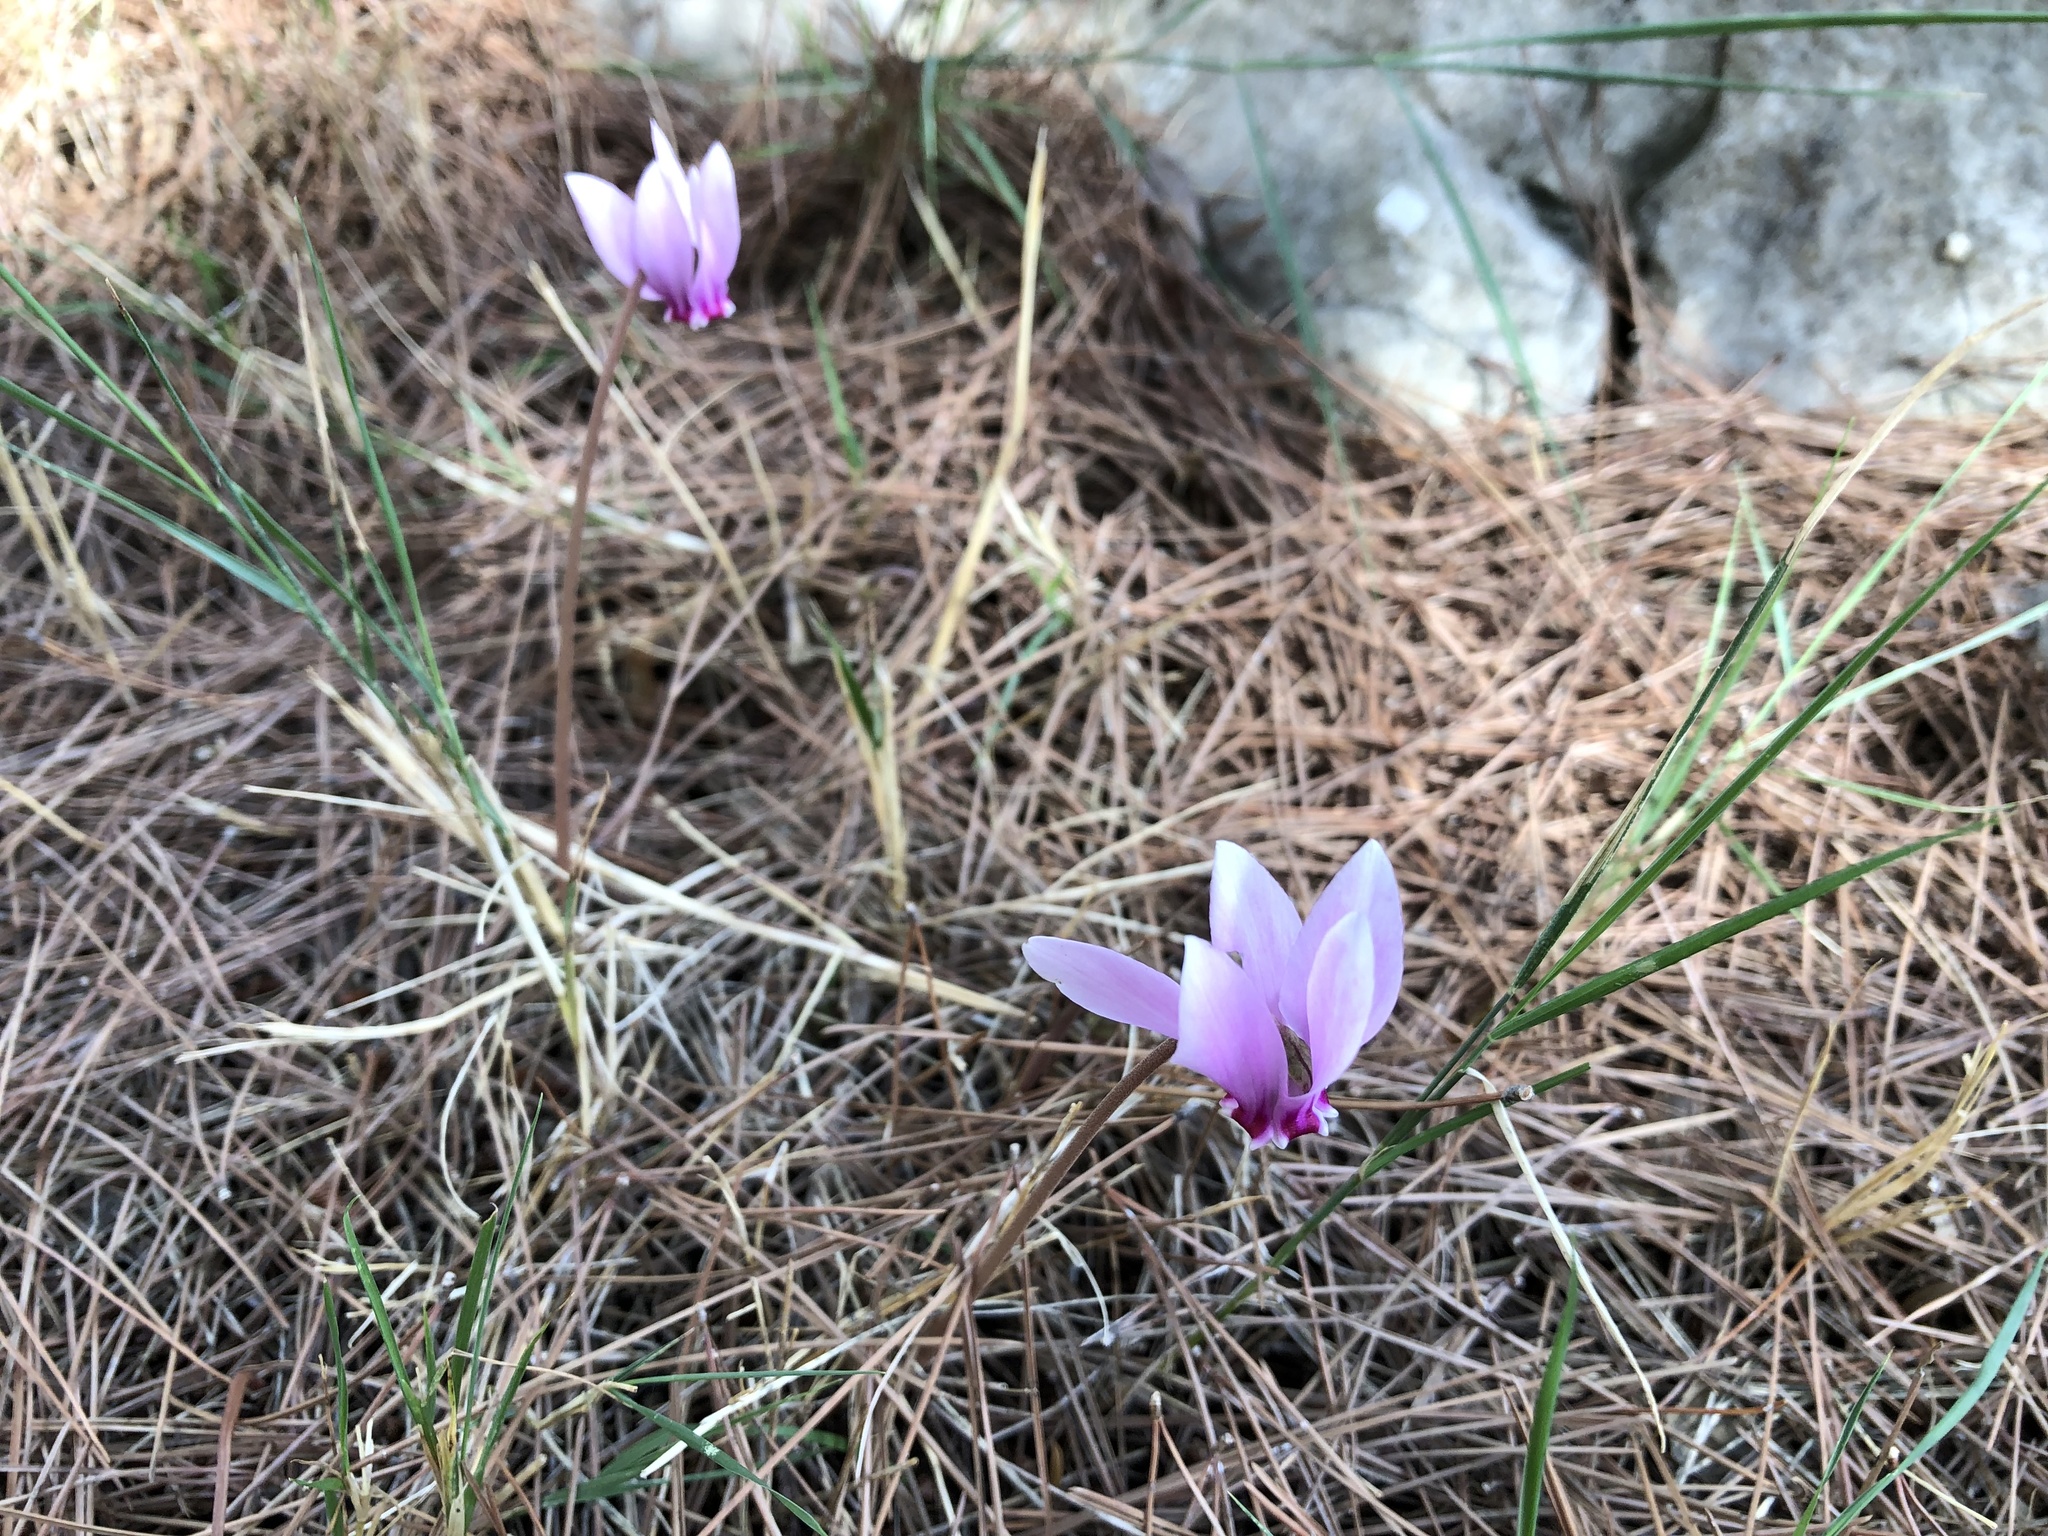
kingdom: Plantae
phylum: Tracheophyta
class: Magnoliopsida
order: Ericales
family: Primulaceae
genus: Cyclamen
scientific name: Cyclamen hederifolium
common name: Sowbread
